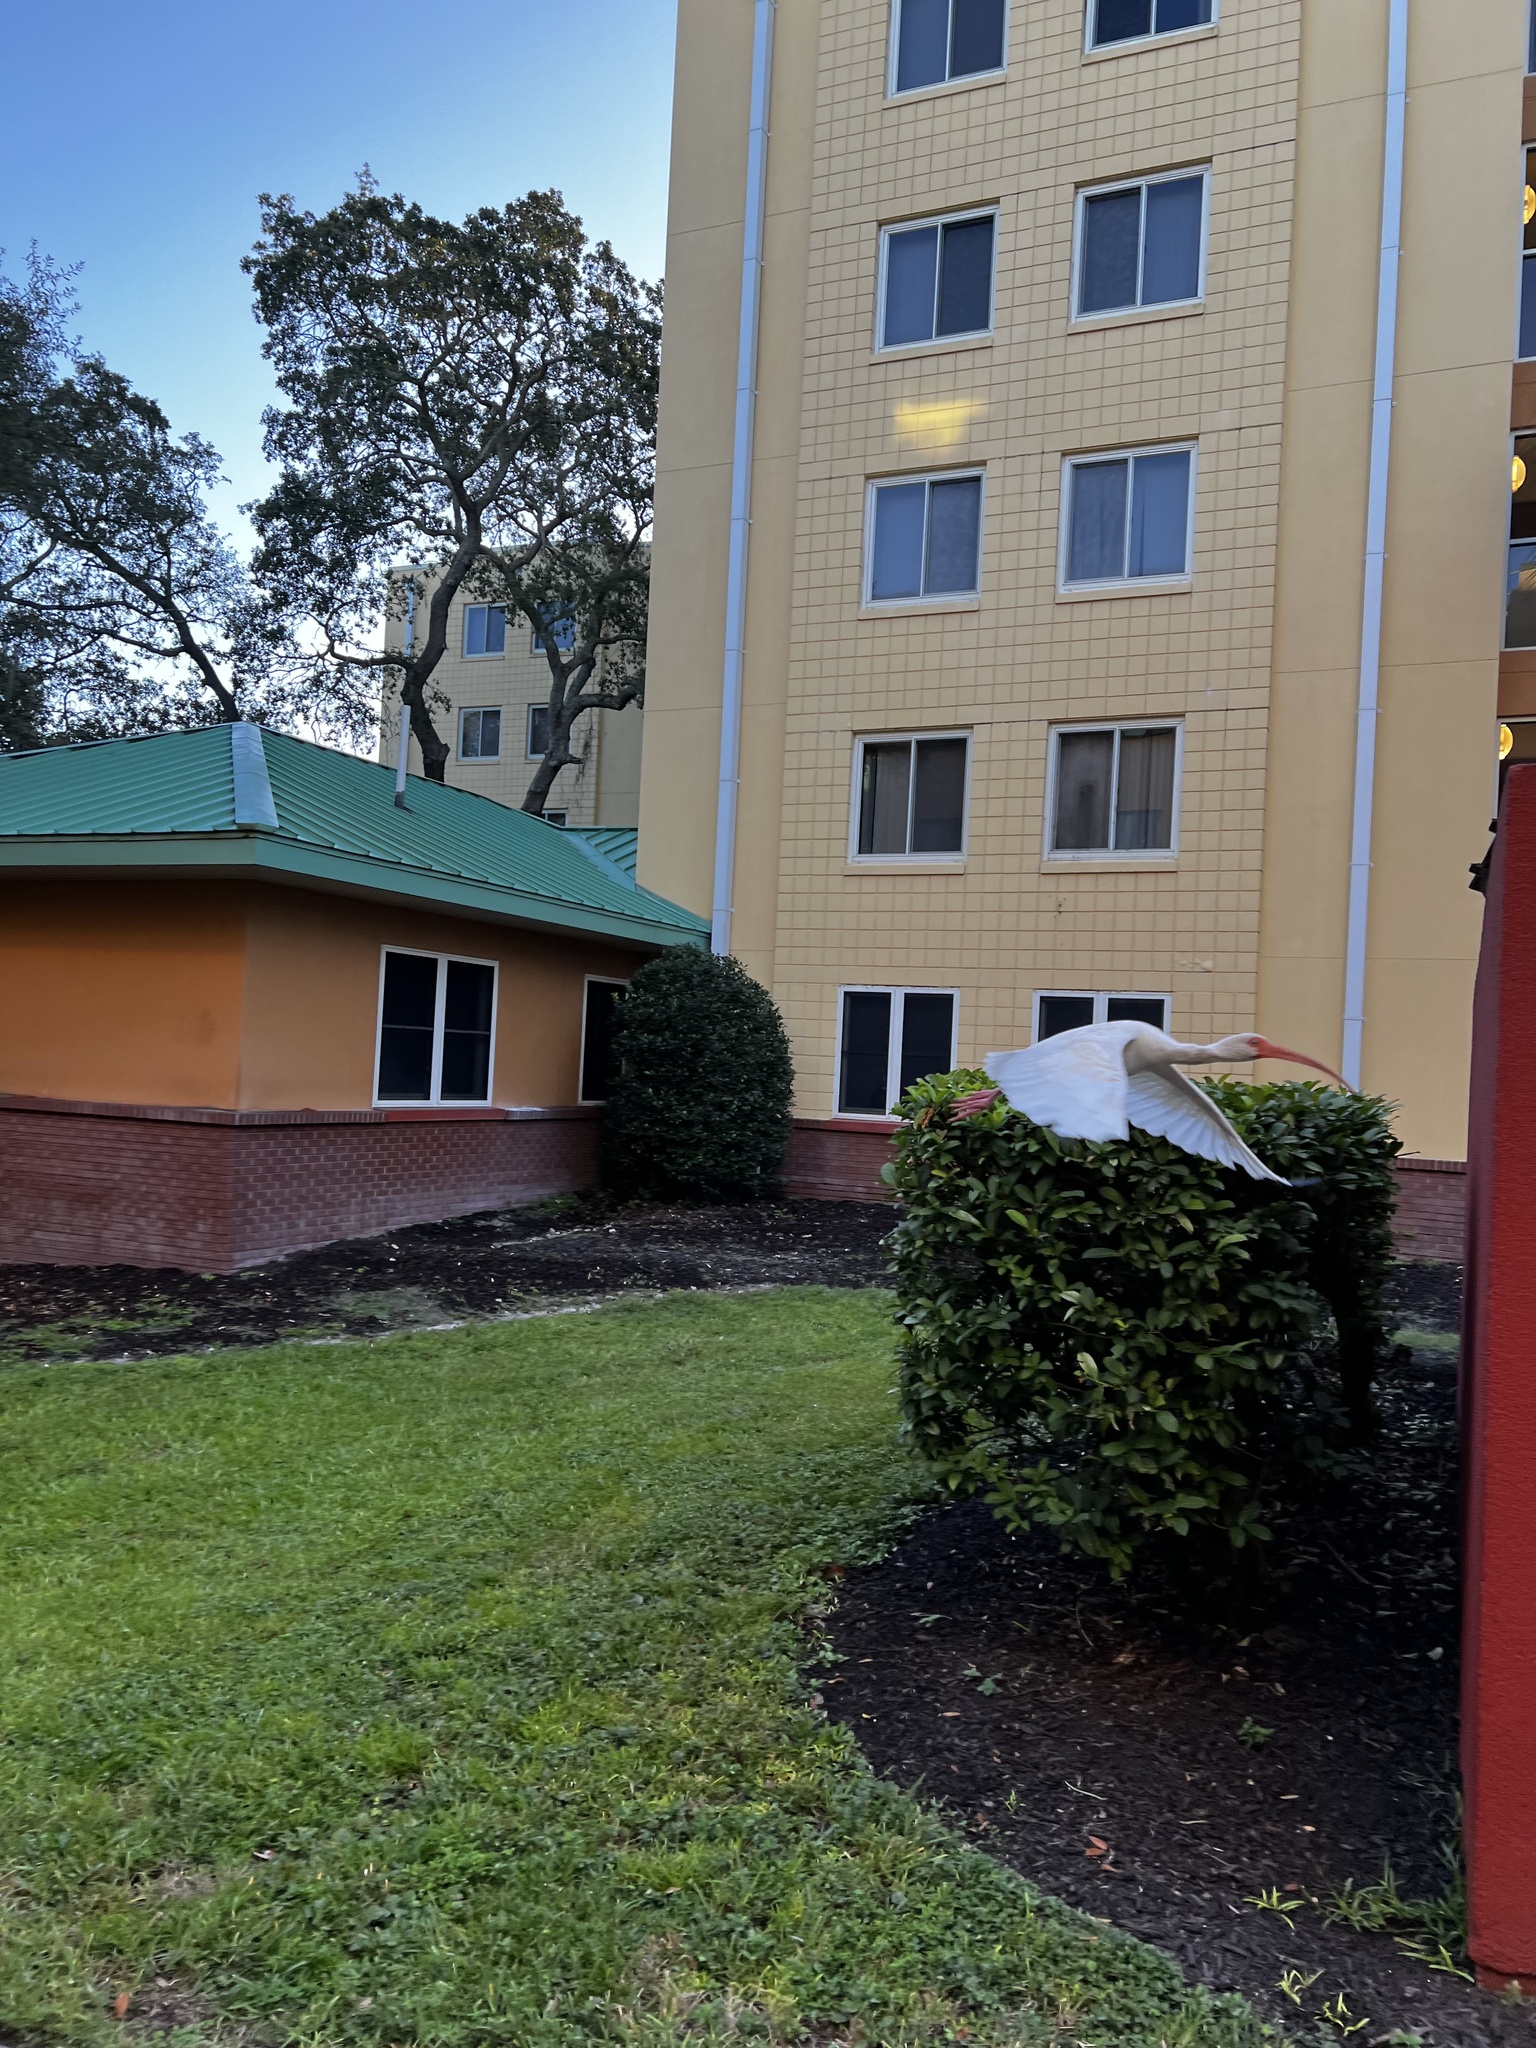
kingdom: Animalia
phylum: Chordata
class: Aves
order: Pelecaniformes
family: Threskiornithidae
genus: Eudocimus
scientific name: Eudocimus albus
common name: White ibis
